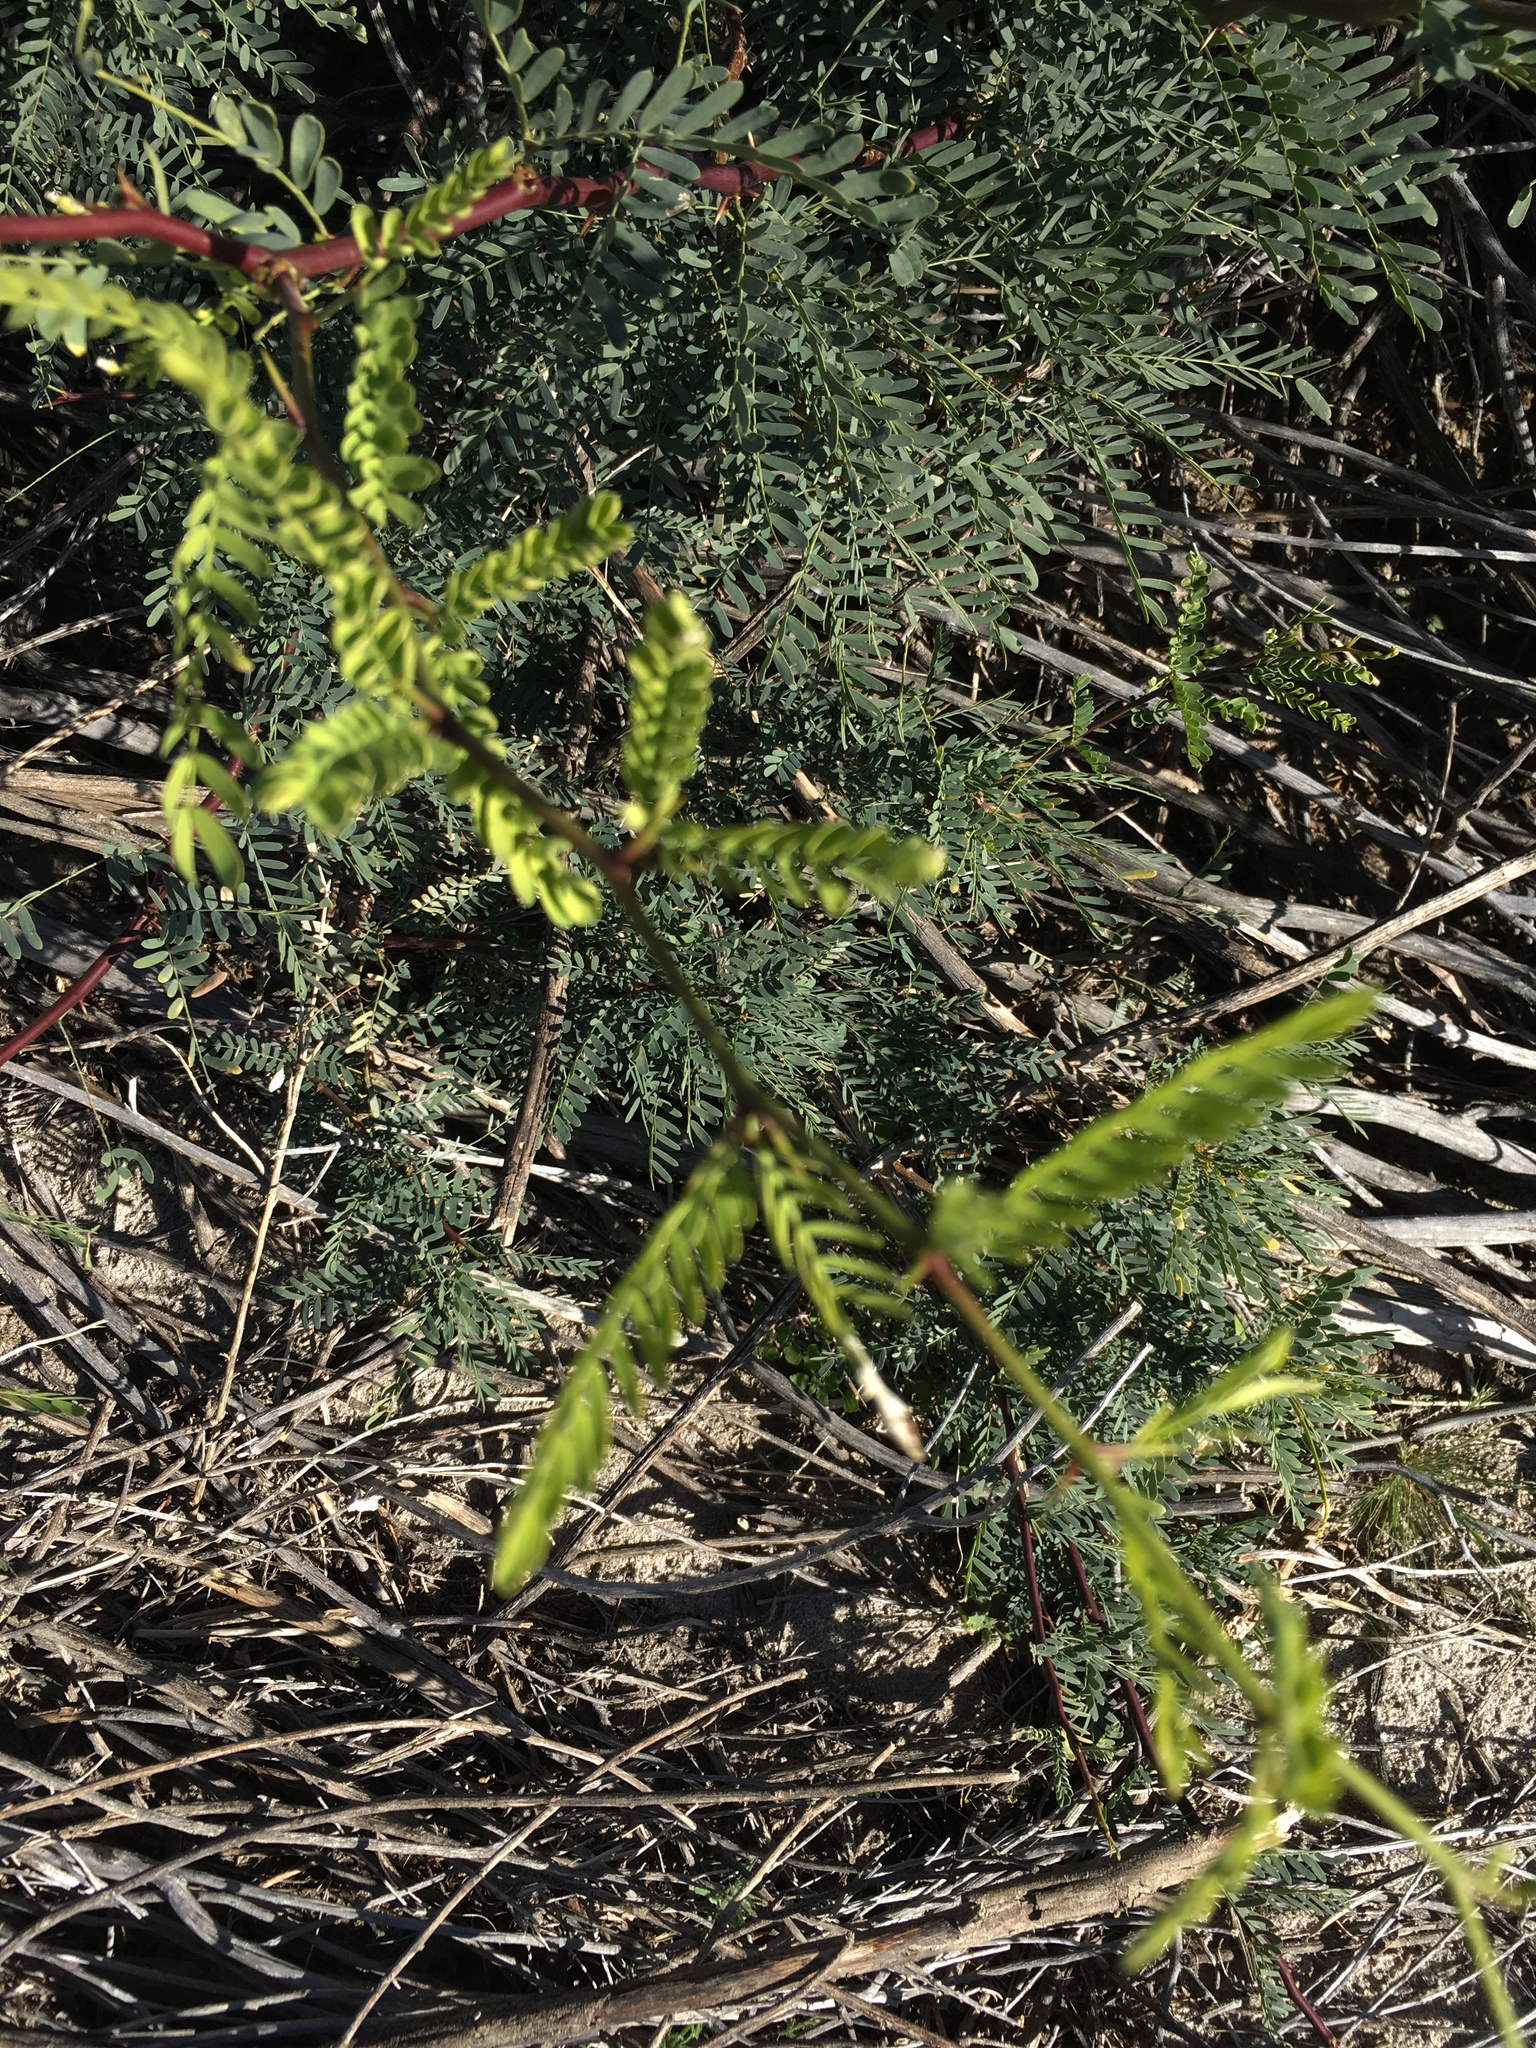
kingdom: Plantae
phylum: Tracheophyta
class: Magnoliopsida
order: Fabales
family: Fabaceae
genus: Prosopis
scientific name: Prosopis pubescens
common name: Screw-bean
